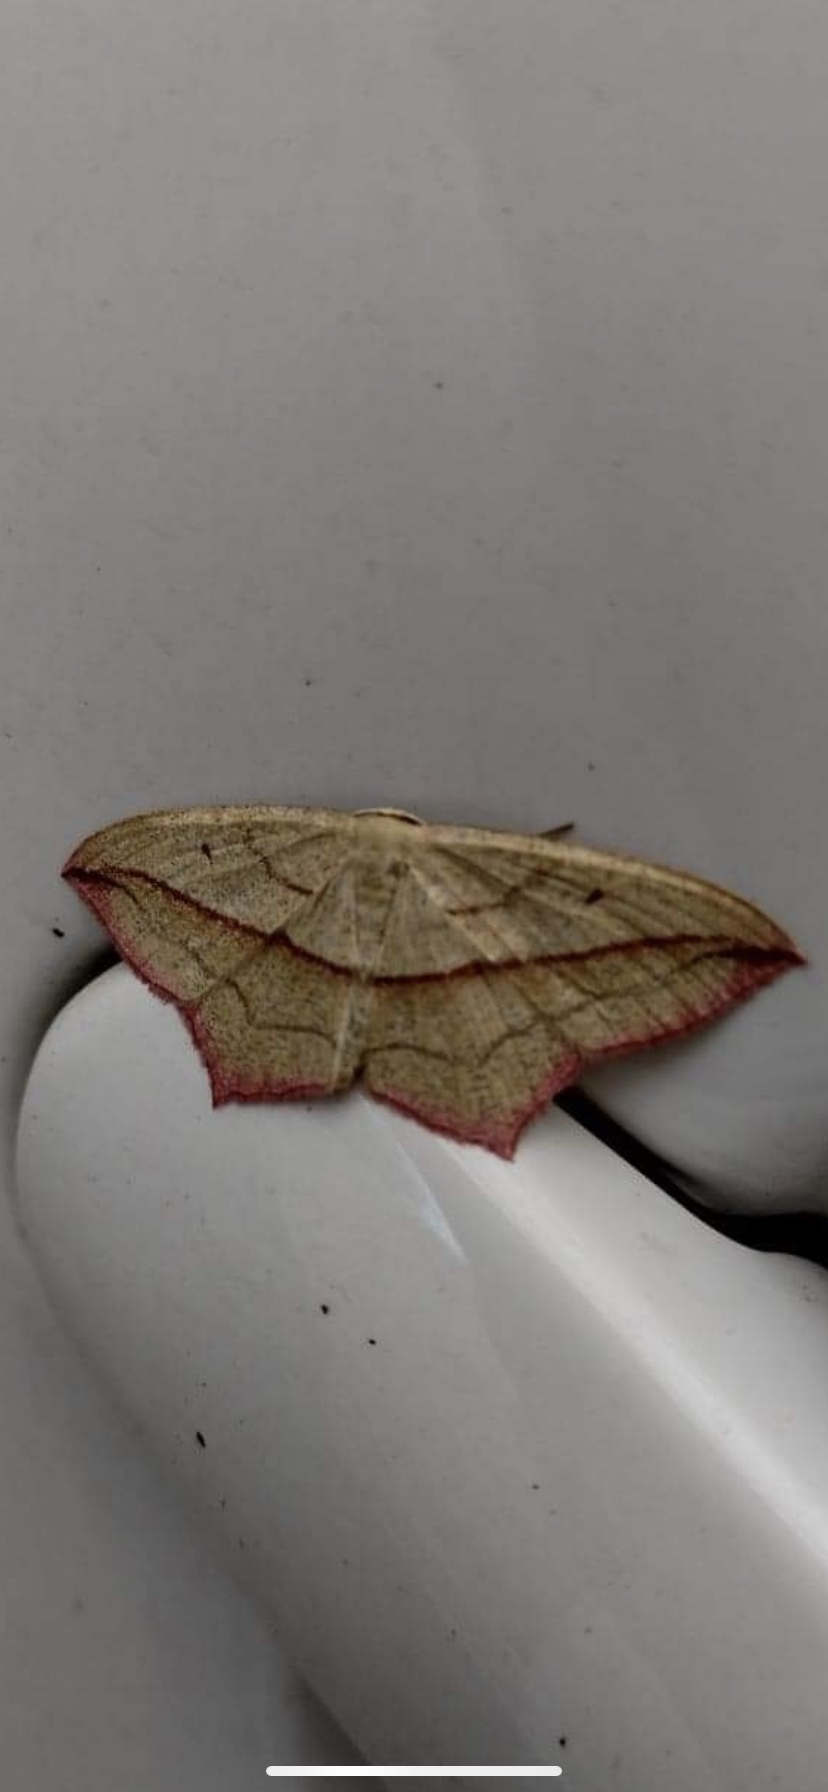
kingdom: Animalia
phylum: Arthropoda
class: Insecta
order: Lepidoptera
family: Geometridae
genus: Timandra
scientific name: Timandra comae
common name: Blood-vein
